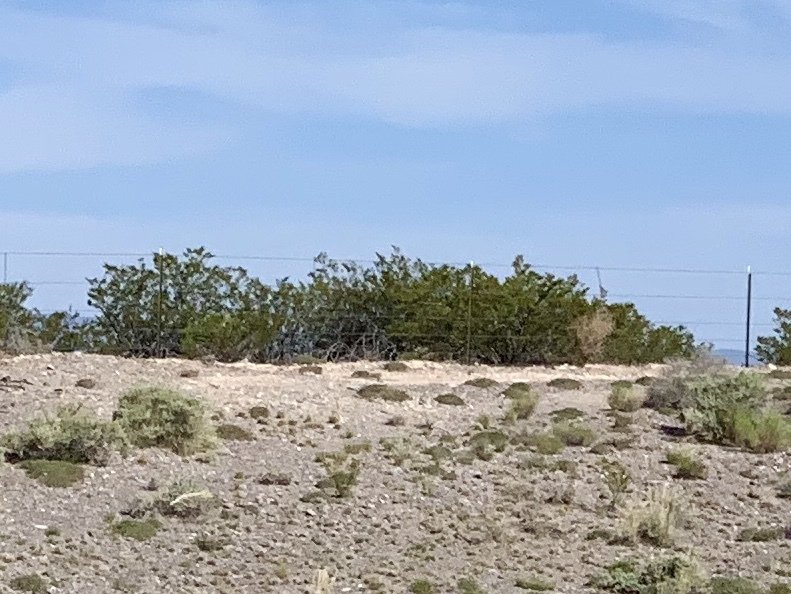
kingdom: Plantae
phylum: Tracheophyta
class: Magnoliopsida
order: Zygophyllales
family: Zygophyllaceae
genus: Larrea
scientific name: Larrea tridentata
